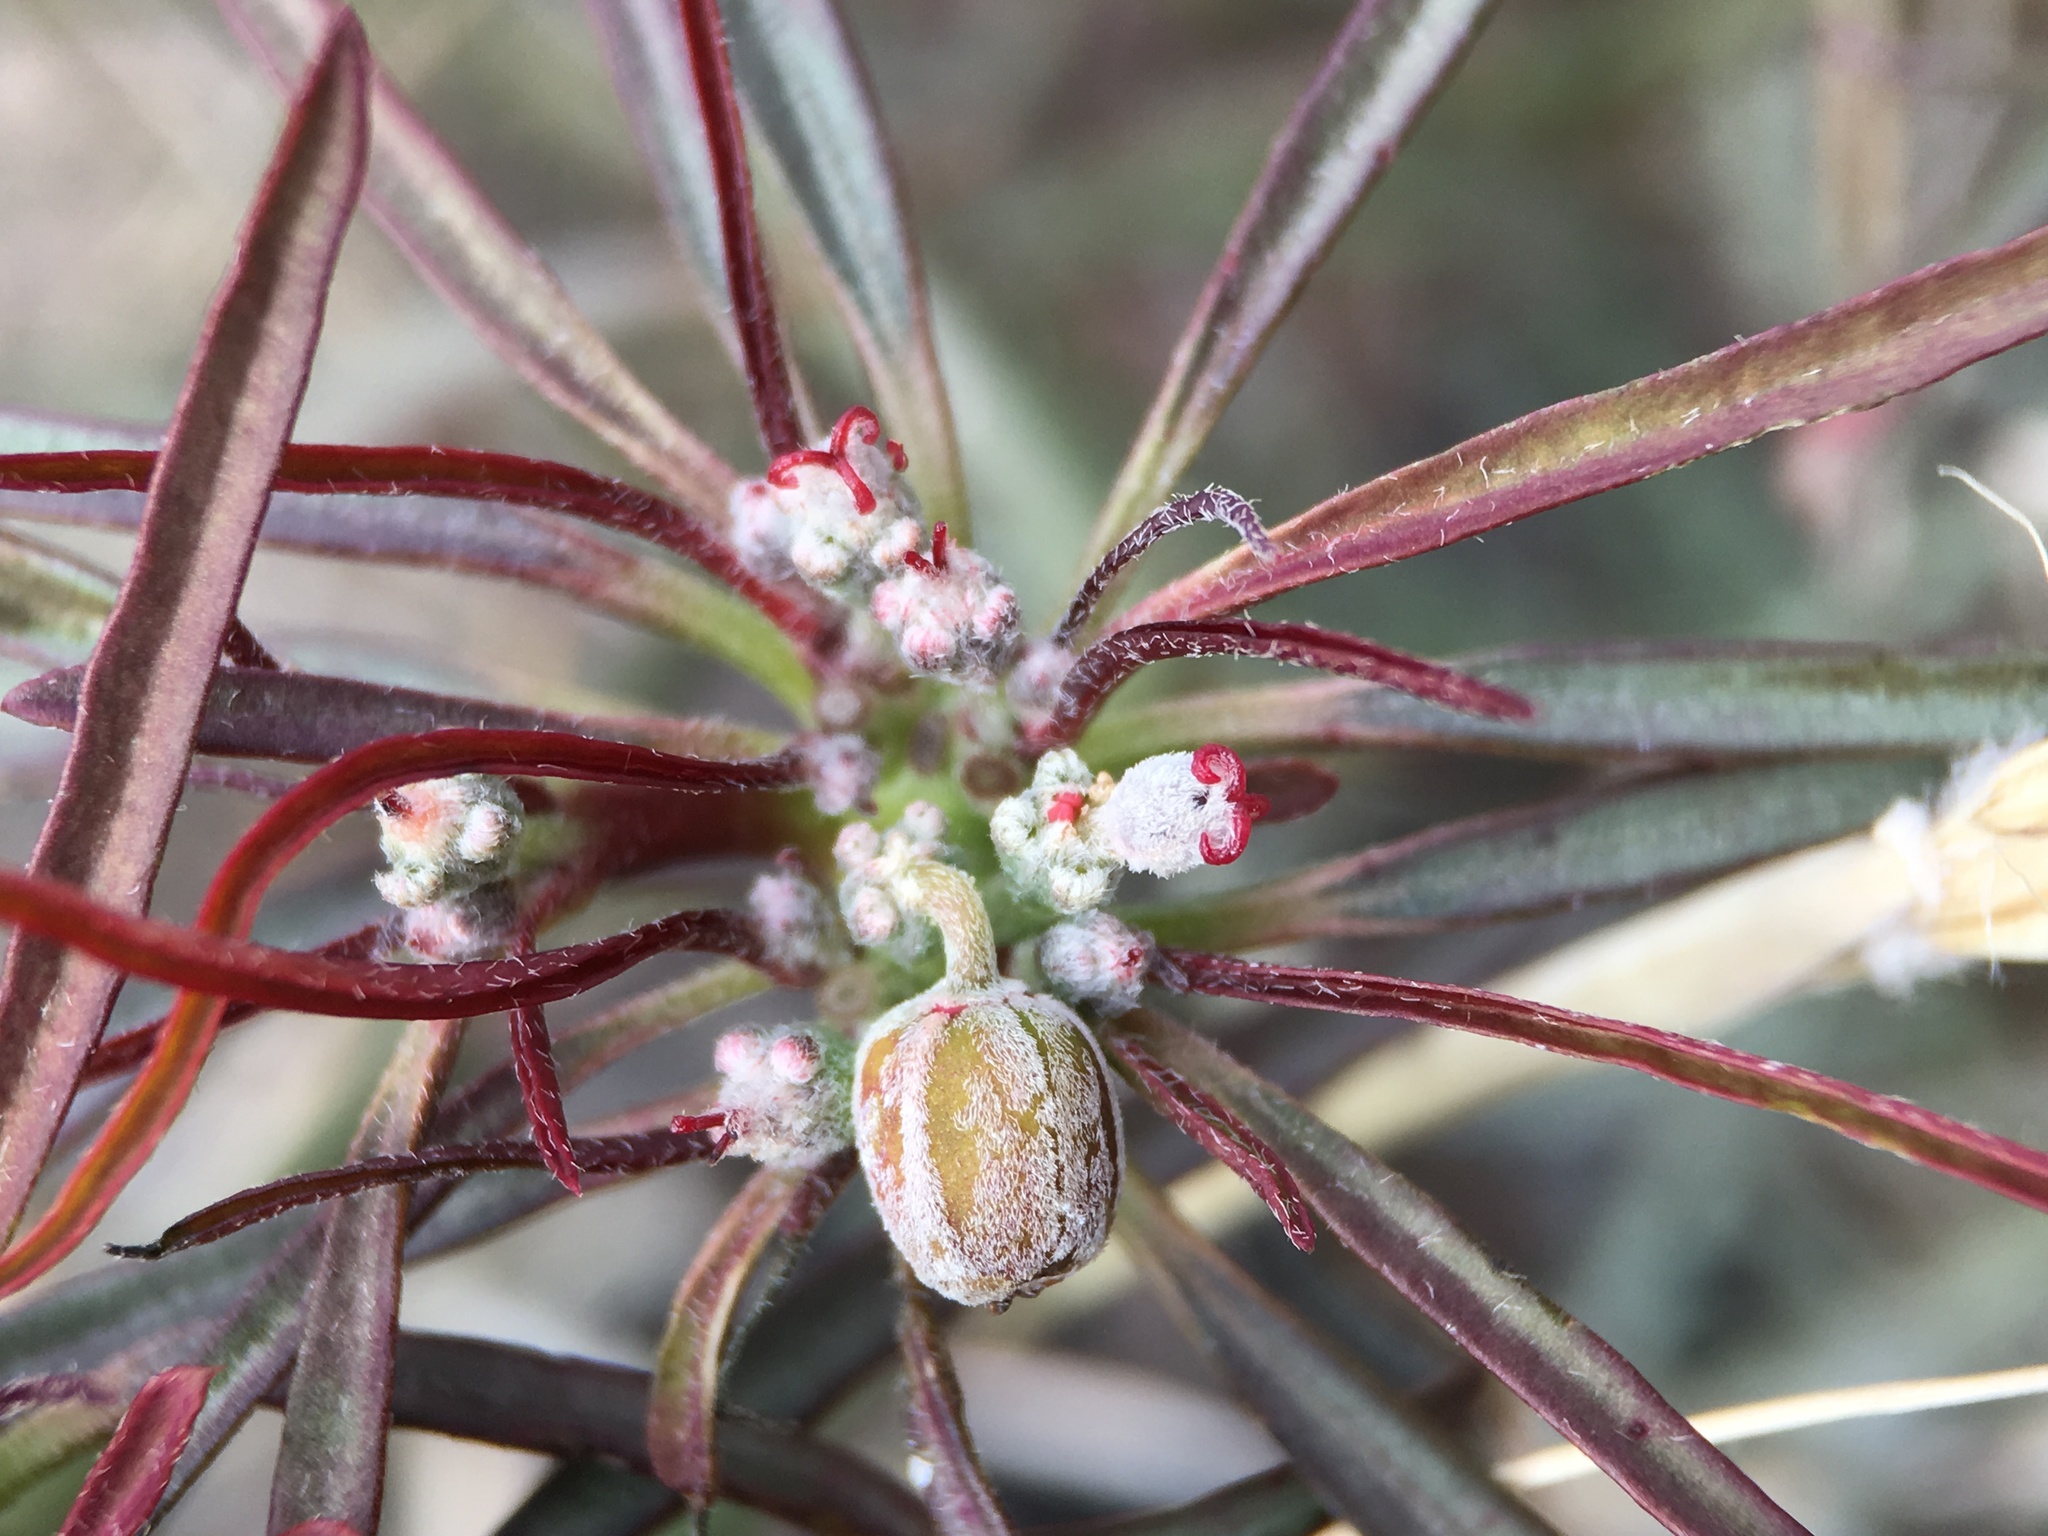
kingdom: Plantae
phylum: Tracheophyta
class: Magnoliopsida
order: Malpighiales
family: Euphorbiaceae
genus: Euphorbia
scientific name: Euphorbia eriantha
